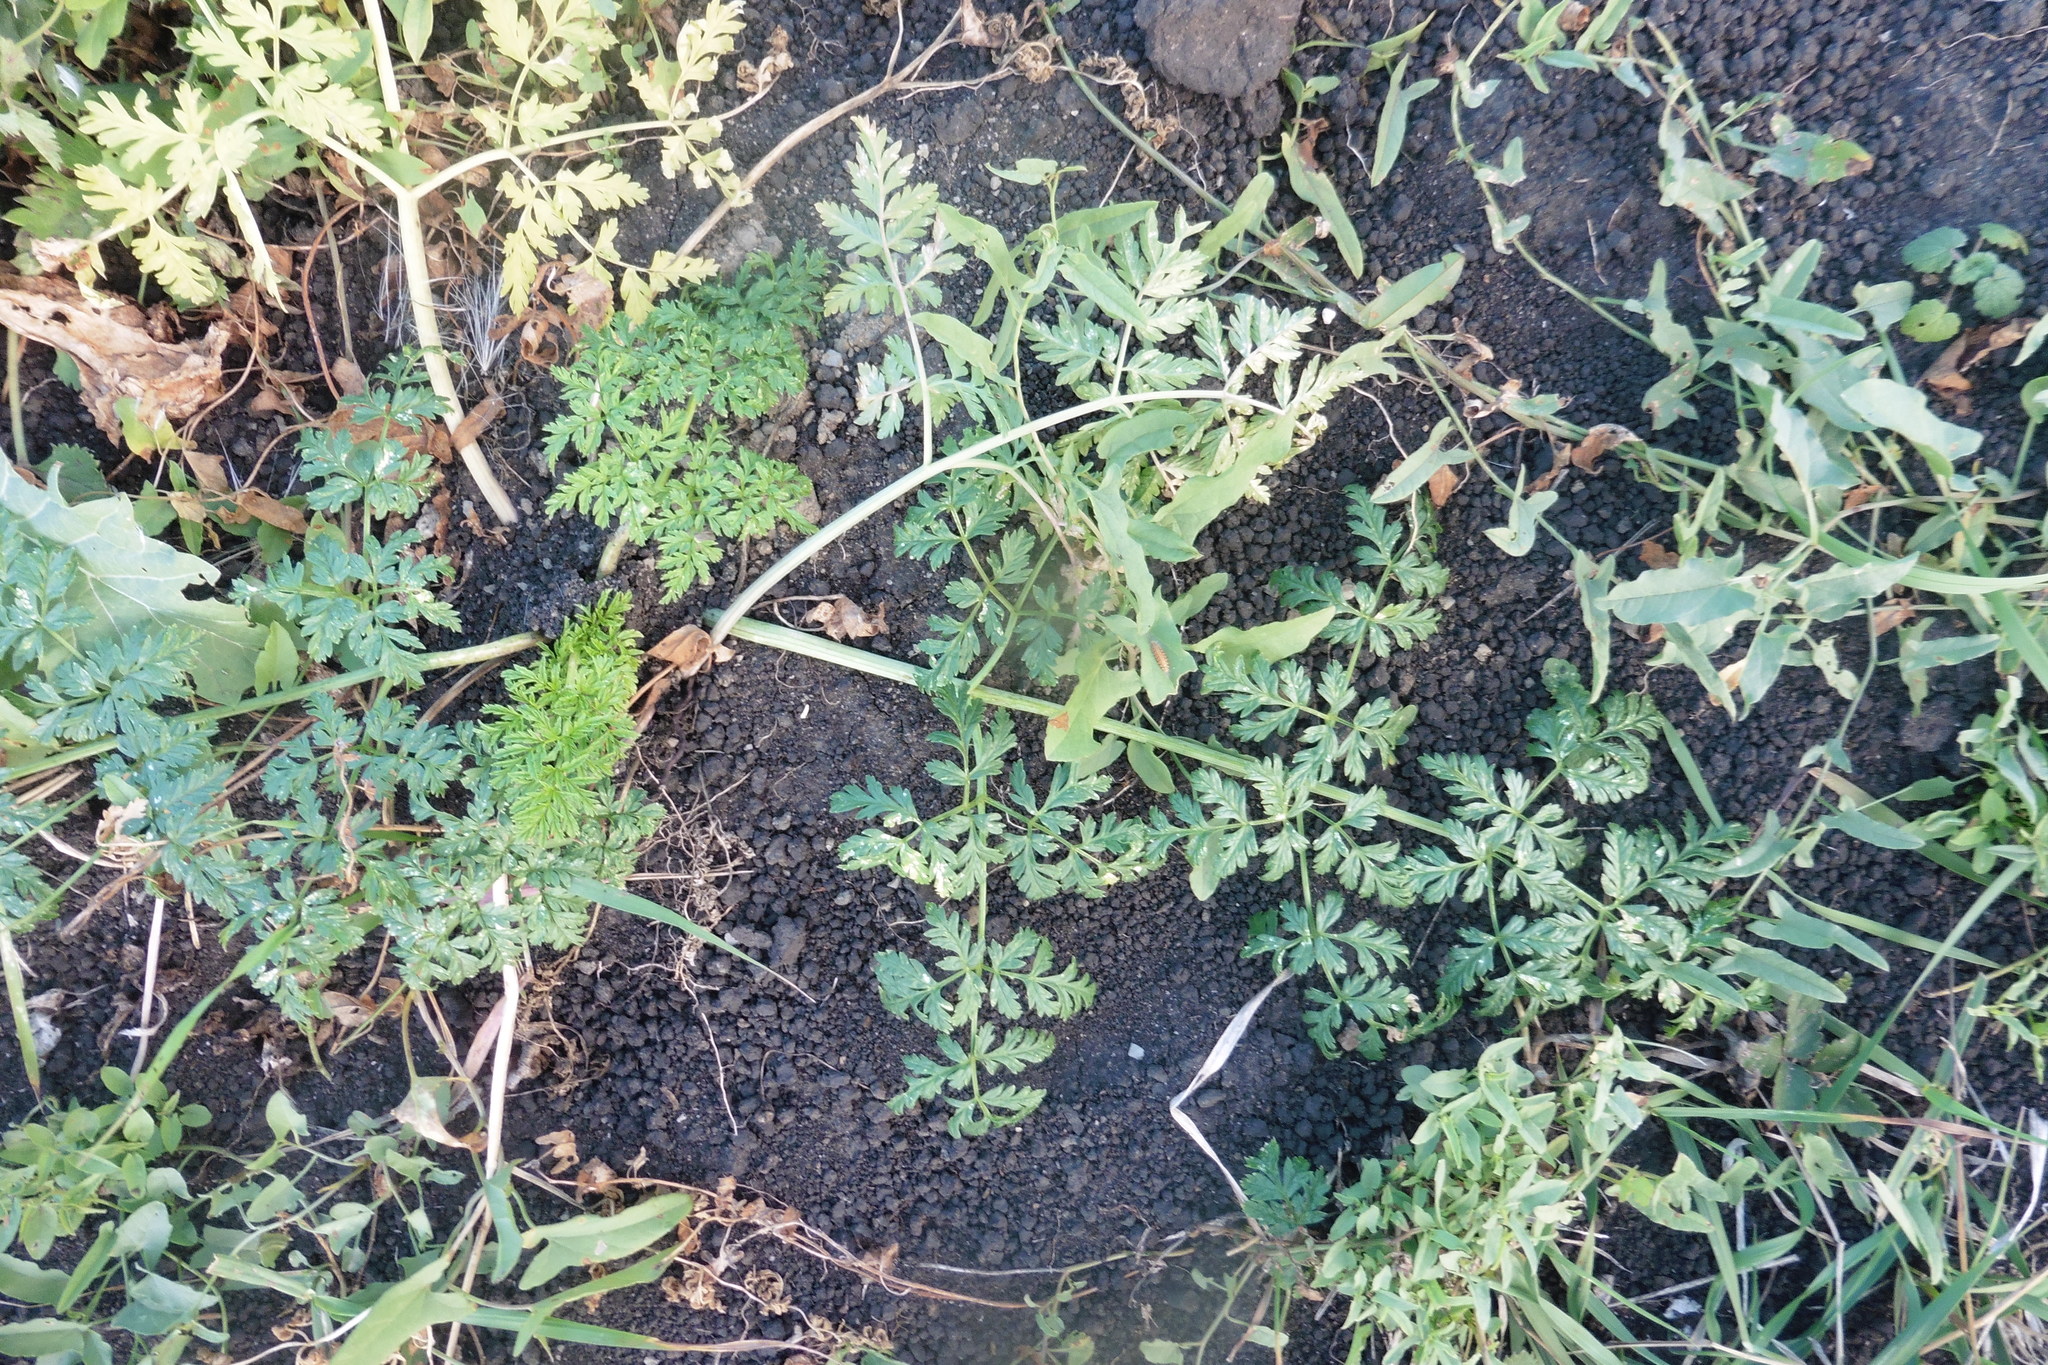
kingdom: Plantae
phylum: Tracheophyta
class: Magnoliopsida
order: Apiales
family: Apiaceae
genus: Conium
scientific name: Conium maculatum
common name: Hemlock
